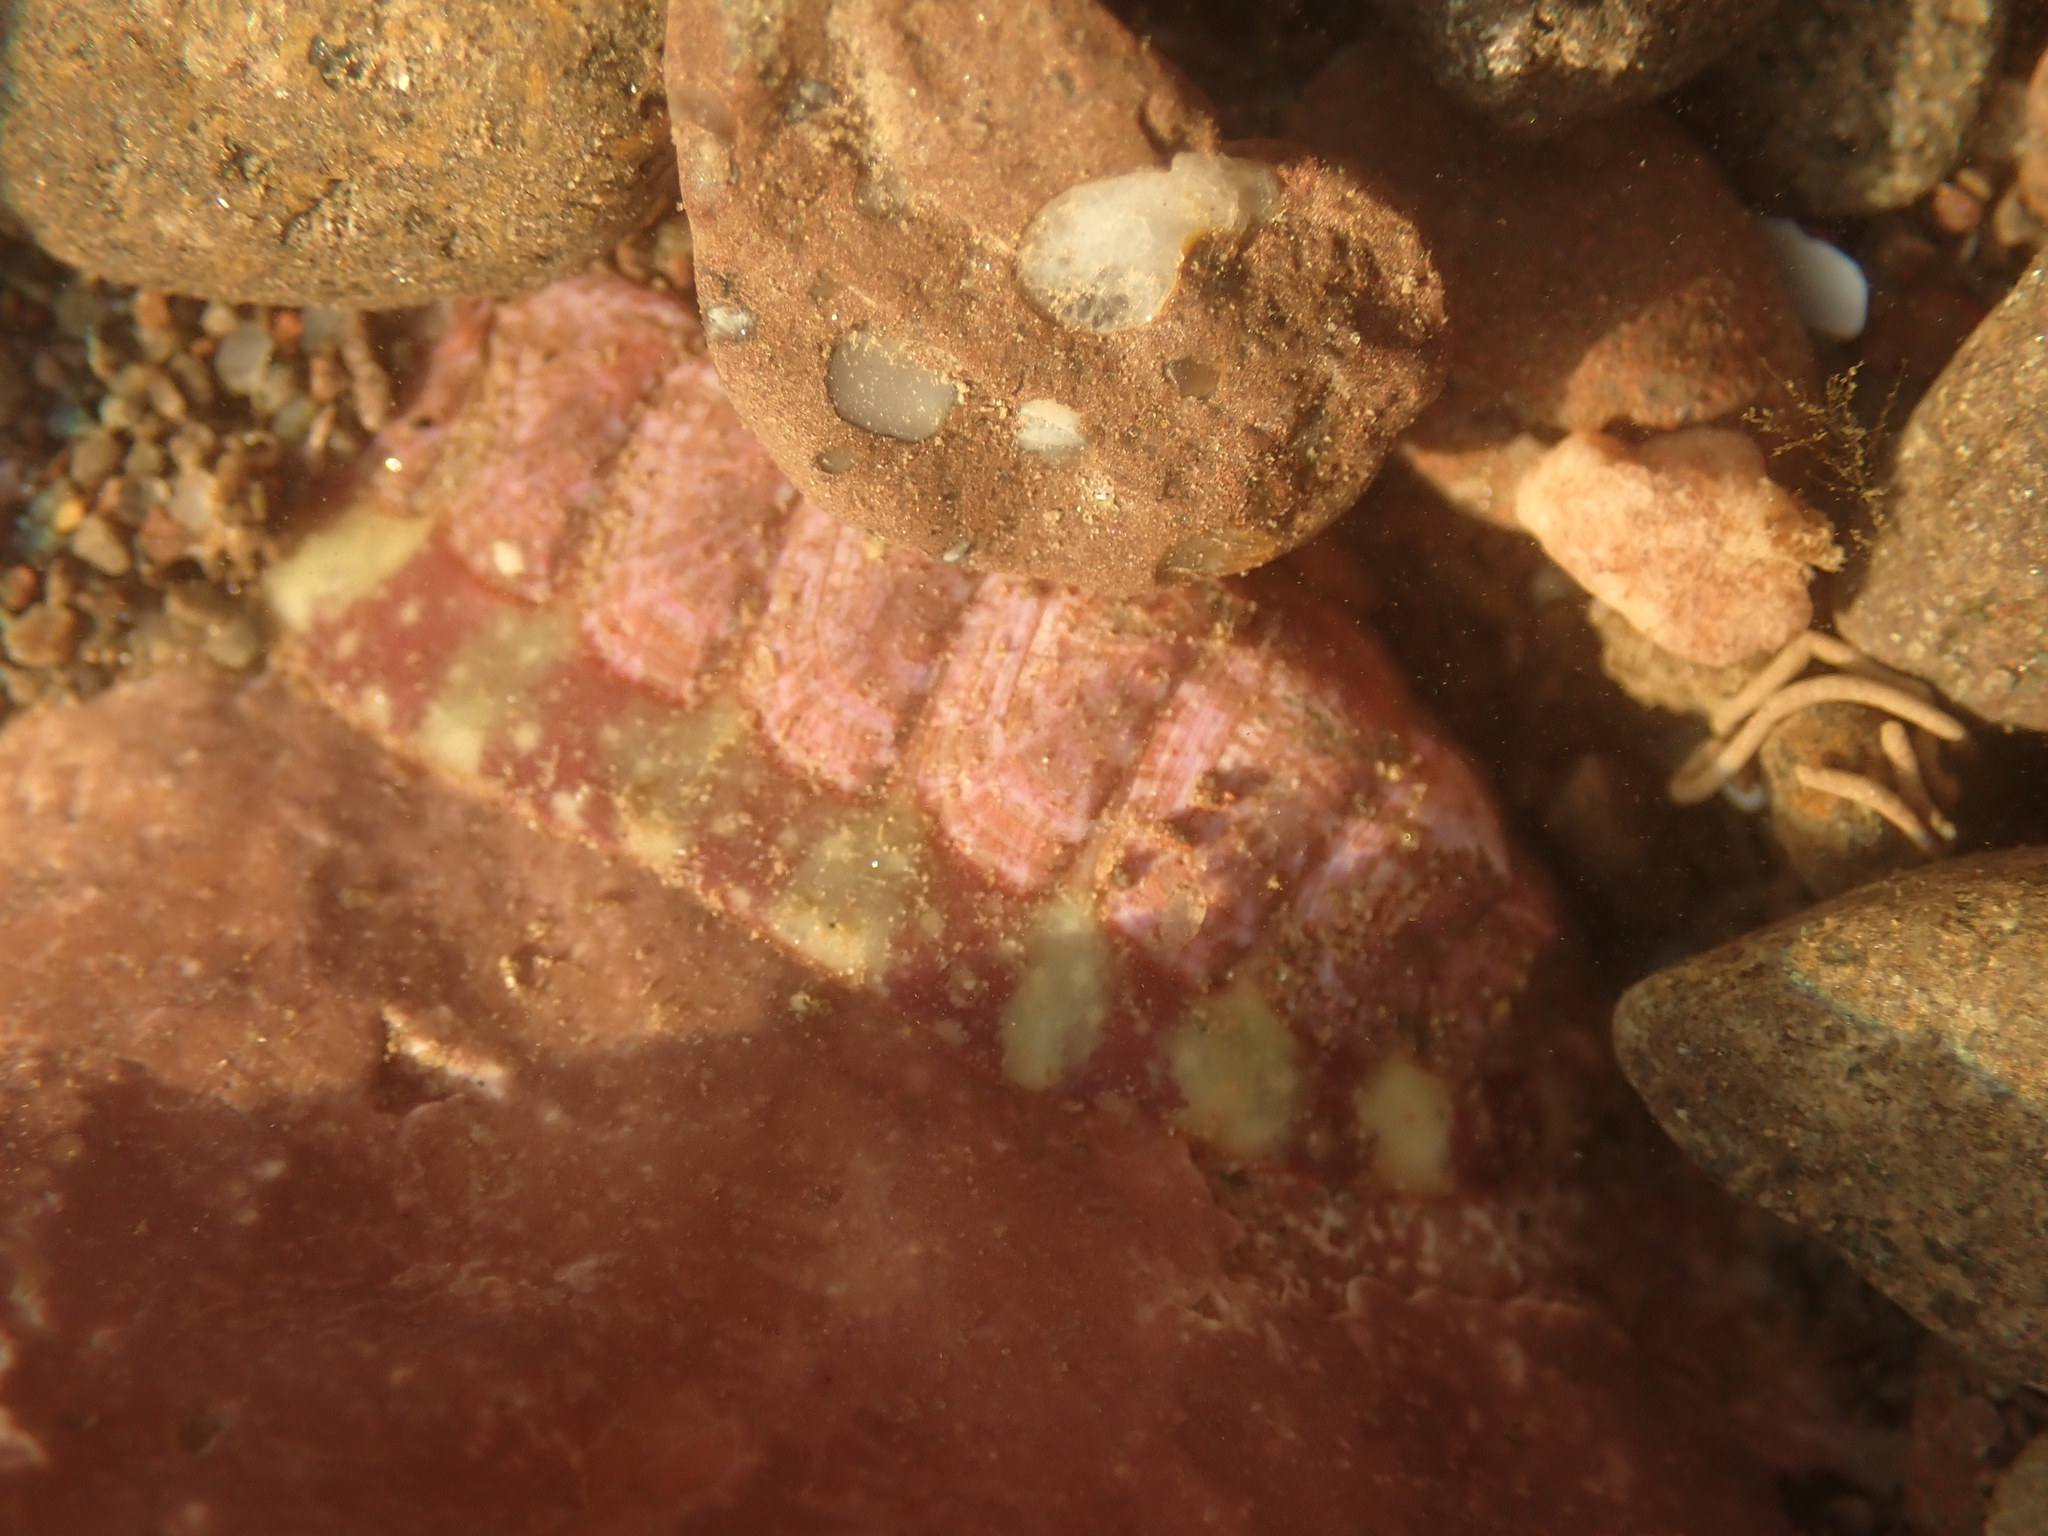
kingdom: Animalia
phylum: Mollusca
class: Polyplacophora
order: Chitonida
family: Tonicellidae
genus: Tonicella
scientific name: Tonicella marmorea
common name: Lined red chiton
